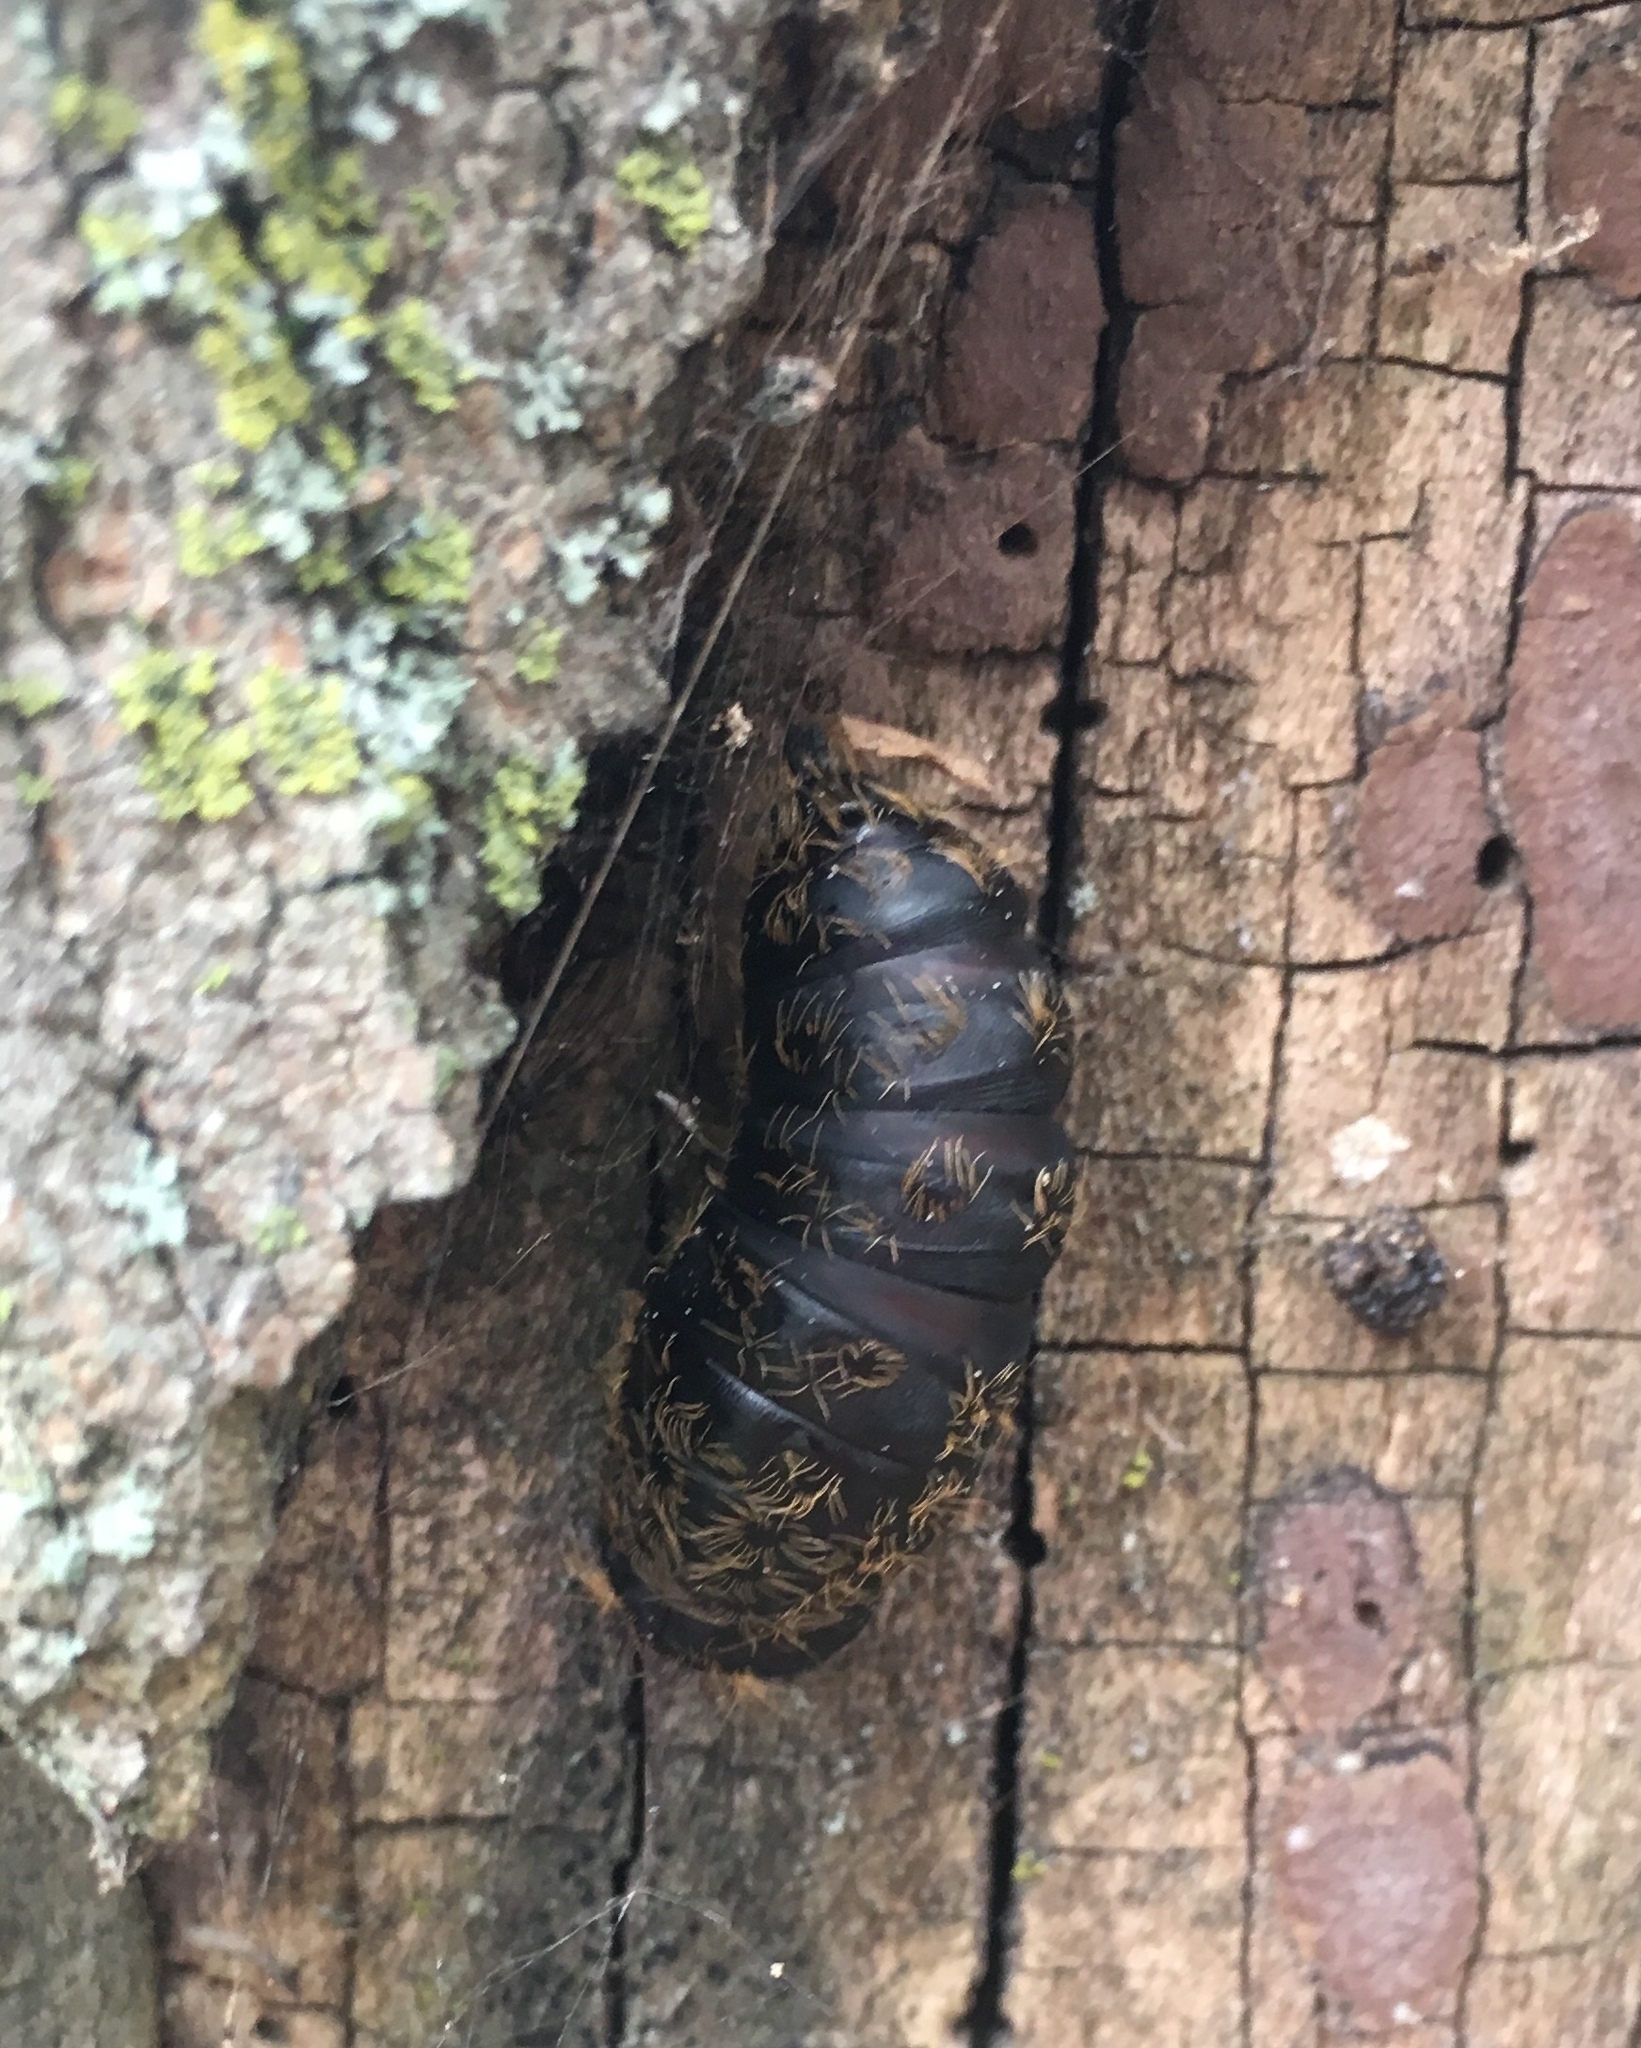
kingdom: Animalia
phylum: Arthropoda
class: Insecta
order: Lepidoptera
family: Erebidae
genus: Lymantria
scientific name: Lymantria dispar
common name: Gypsy moth
